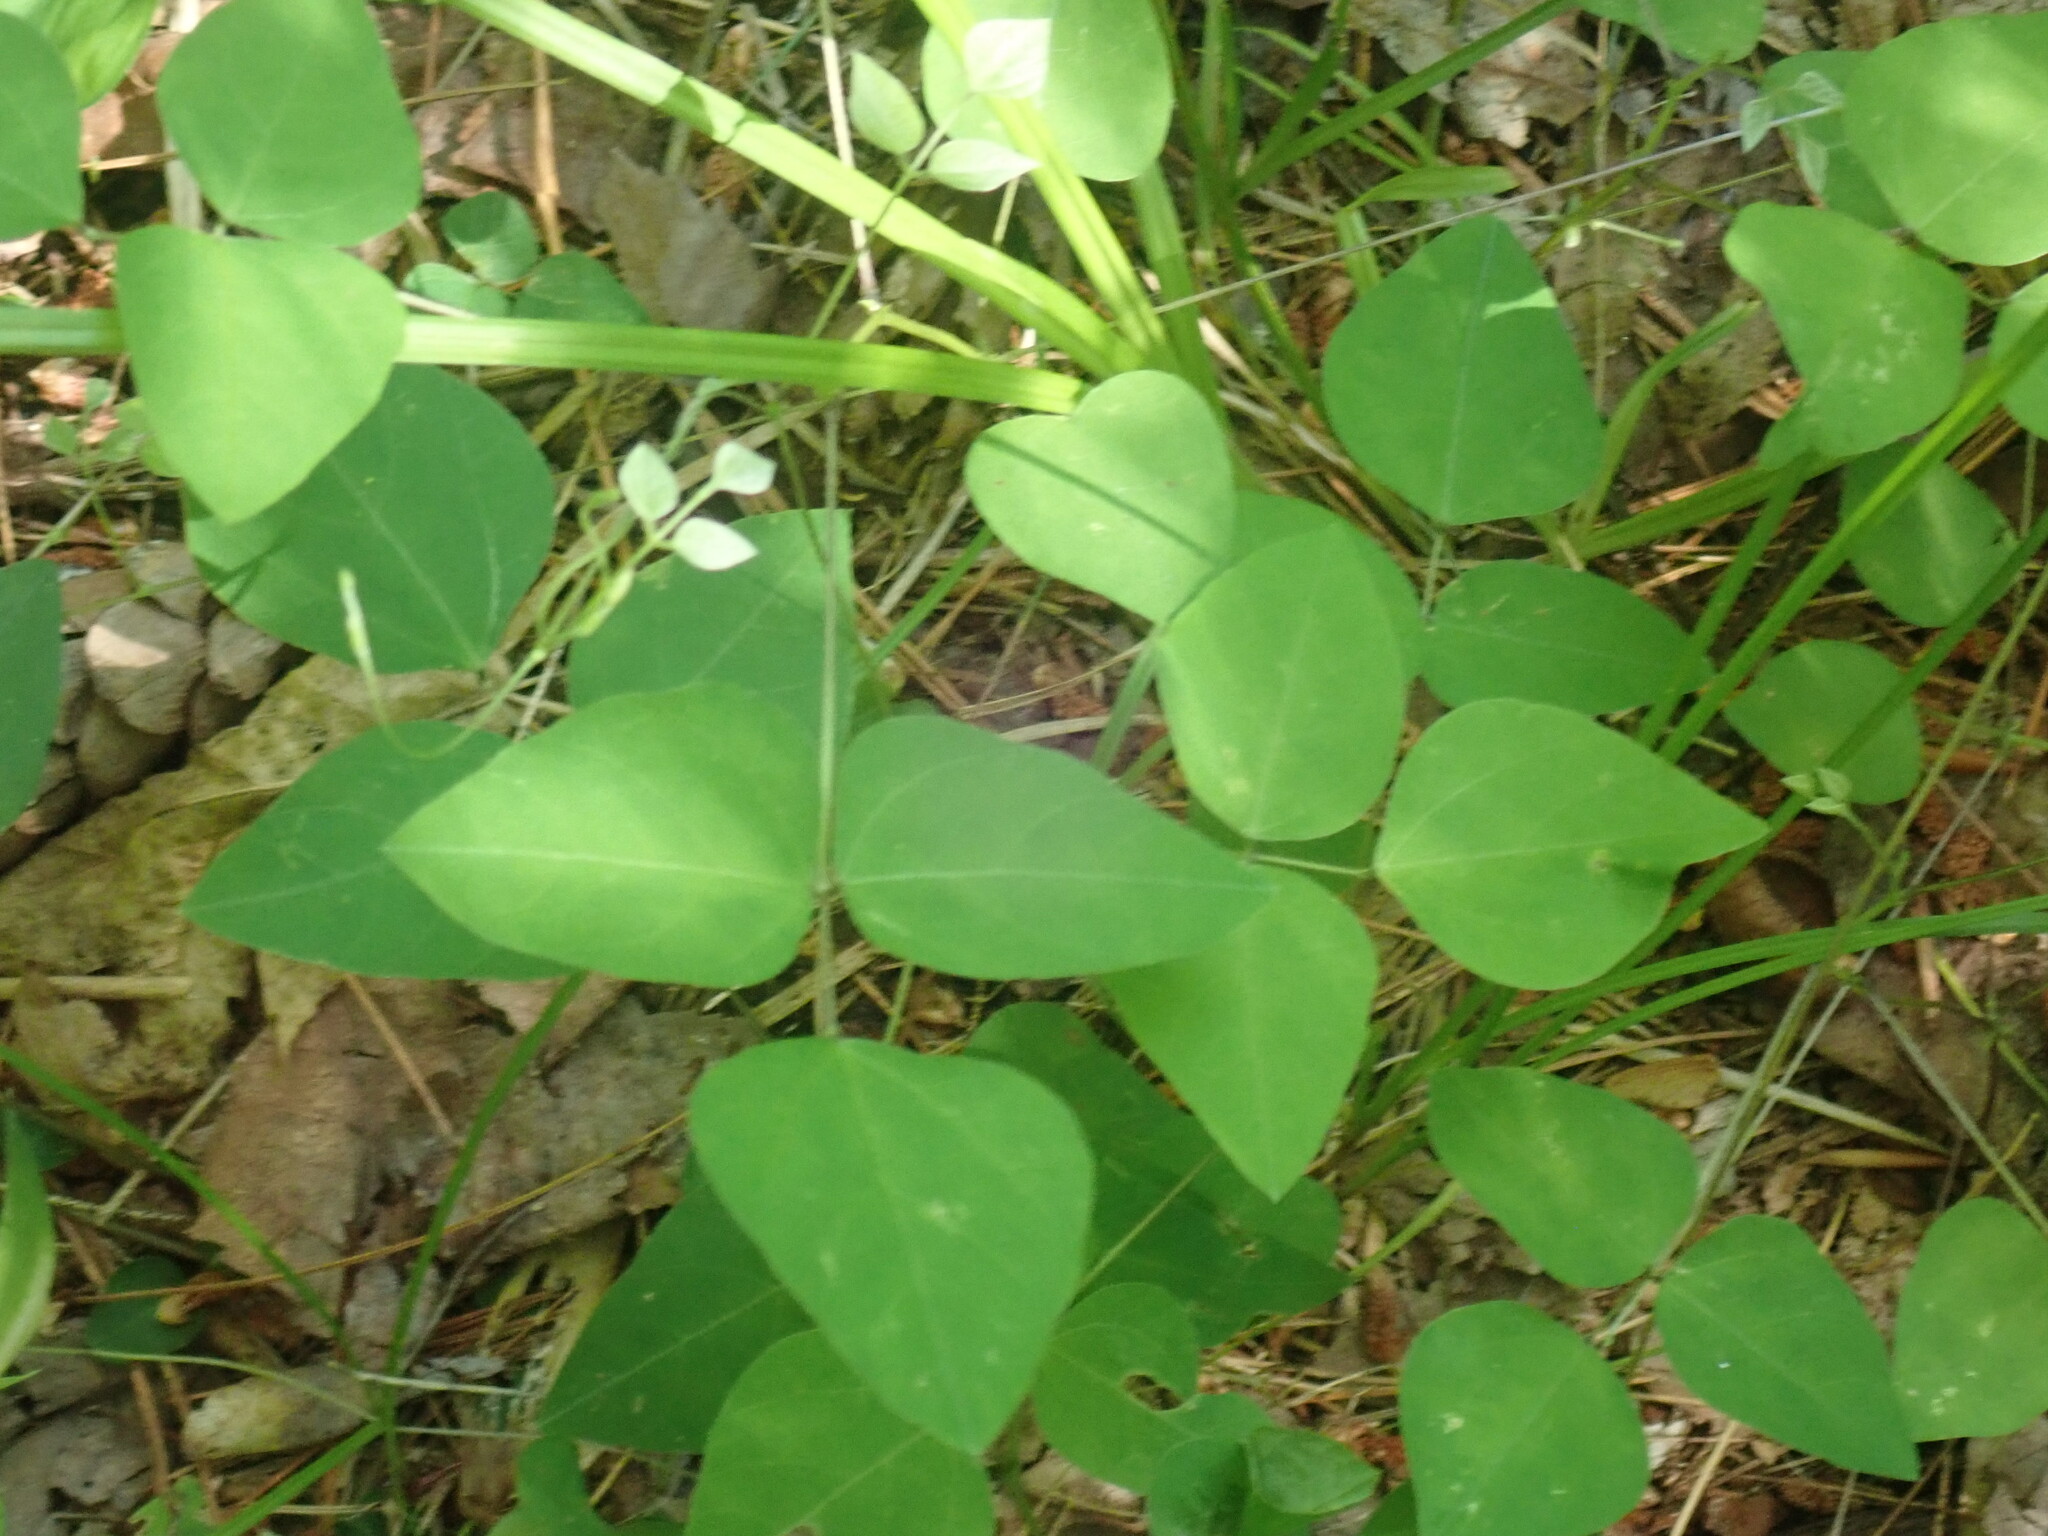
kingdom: Plantae
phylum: Tracheophyta
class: Magnoliopsida
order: Fabales
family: Fabaceae
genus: Amphicarpaea
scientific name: Amphicarpaea bracteata
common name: American hog peanut
